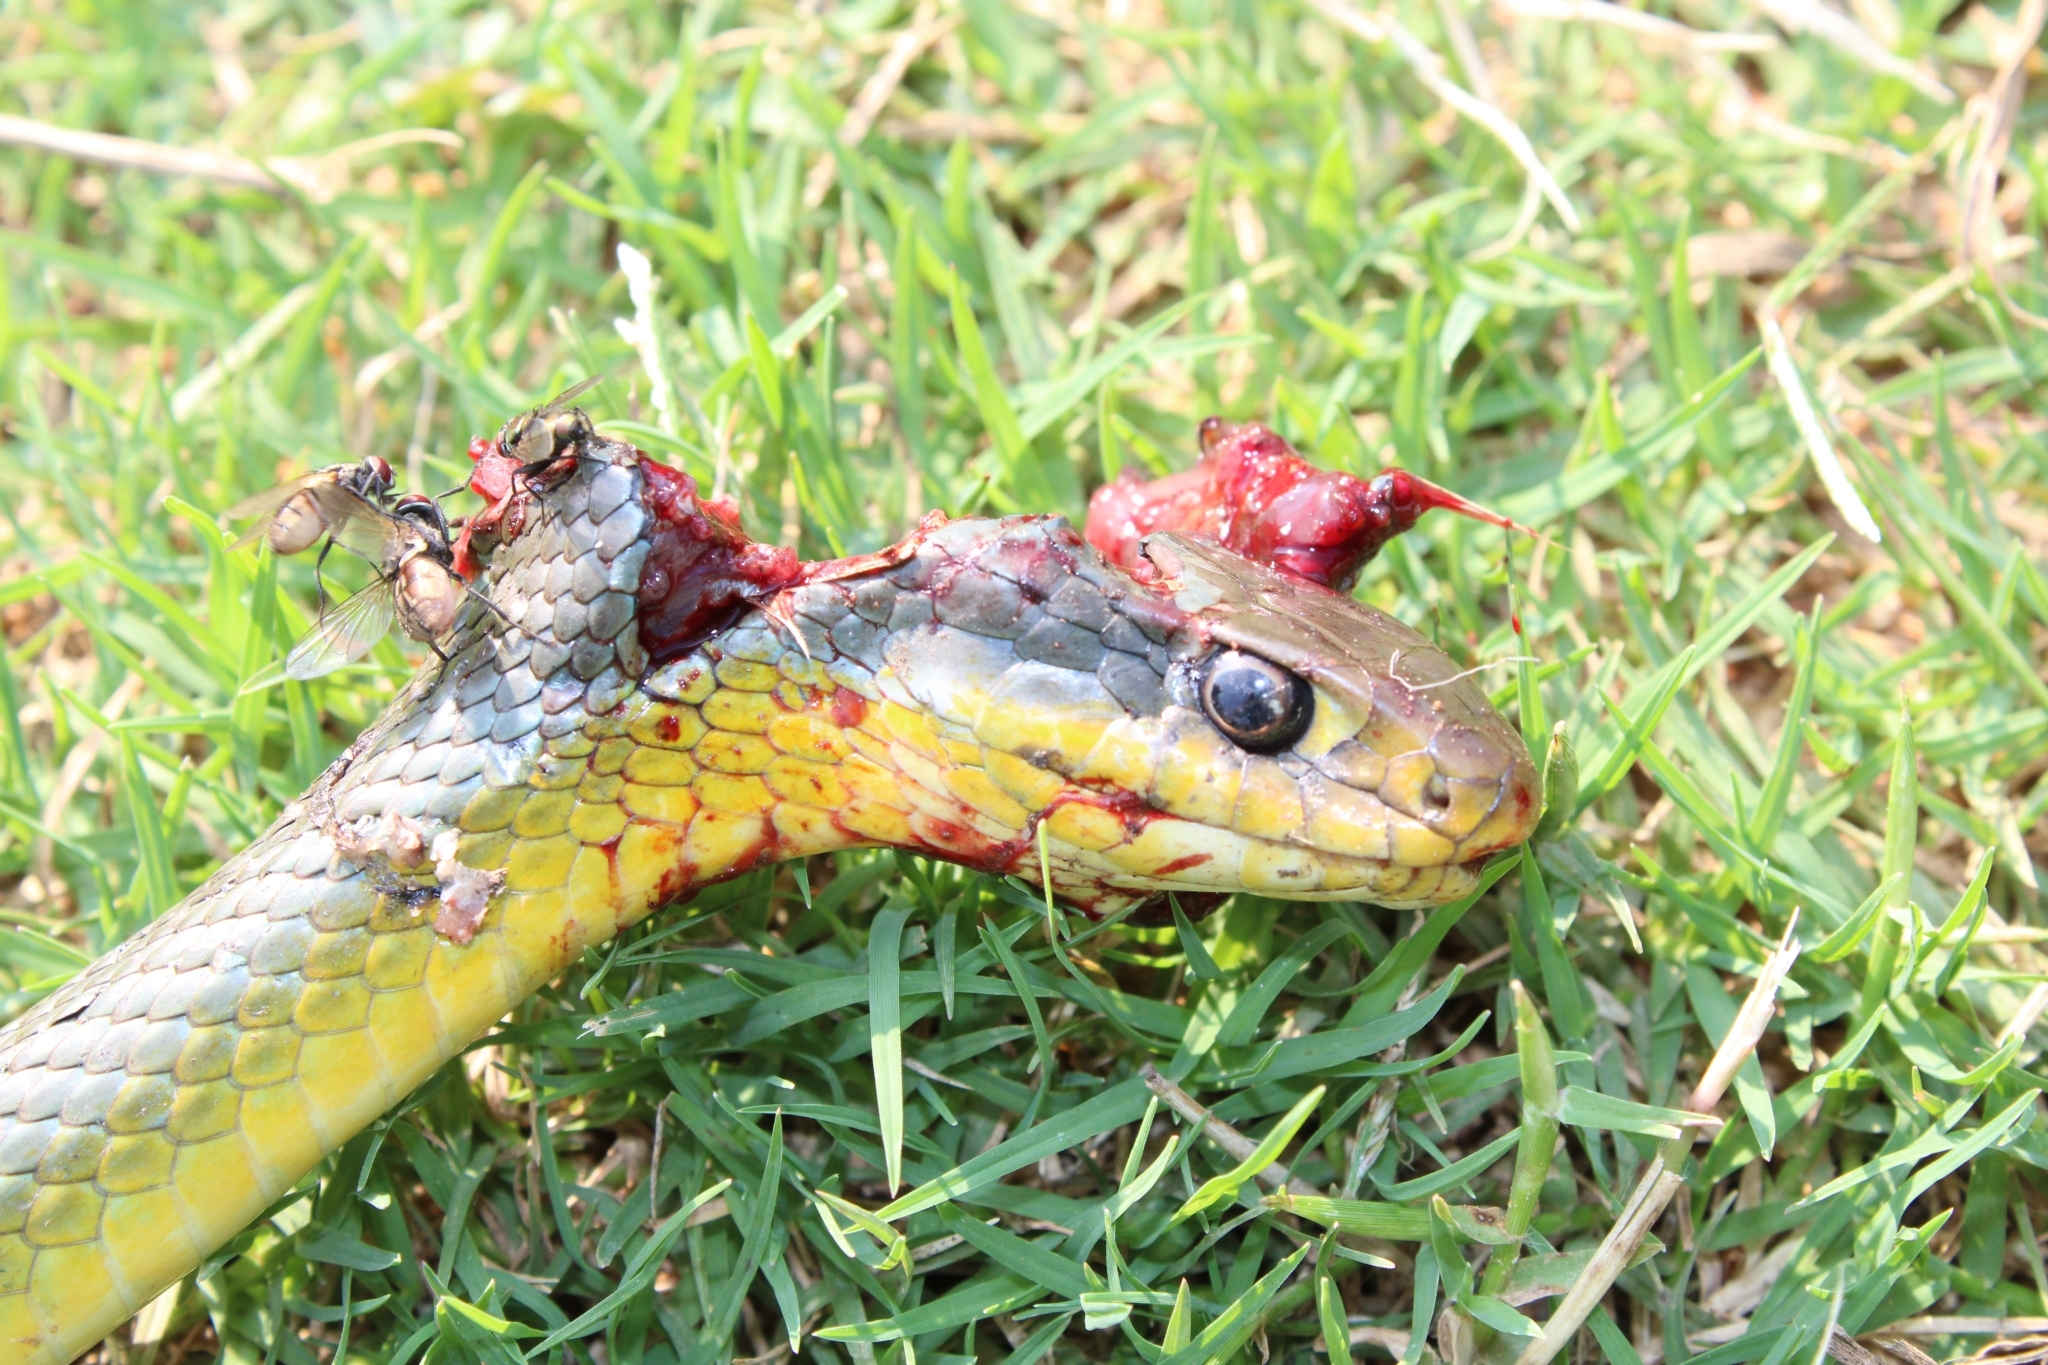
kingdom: Animalia
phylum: Chordata
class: Squamata
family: Colubridae
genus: Coluber
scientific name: Coluber constrictor
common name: Eastern racer
